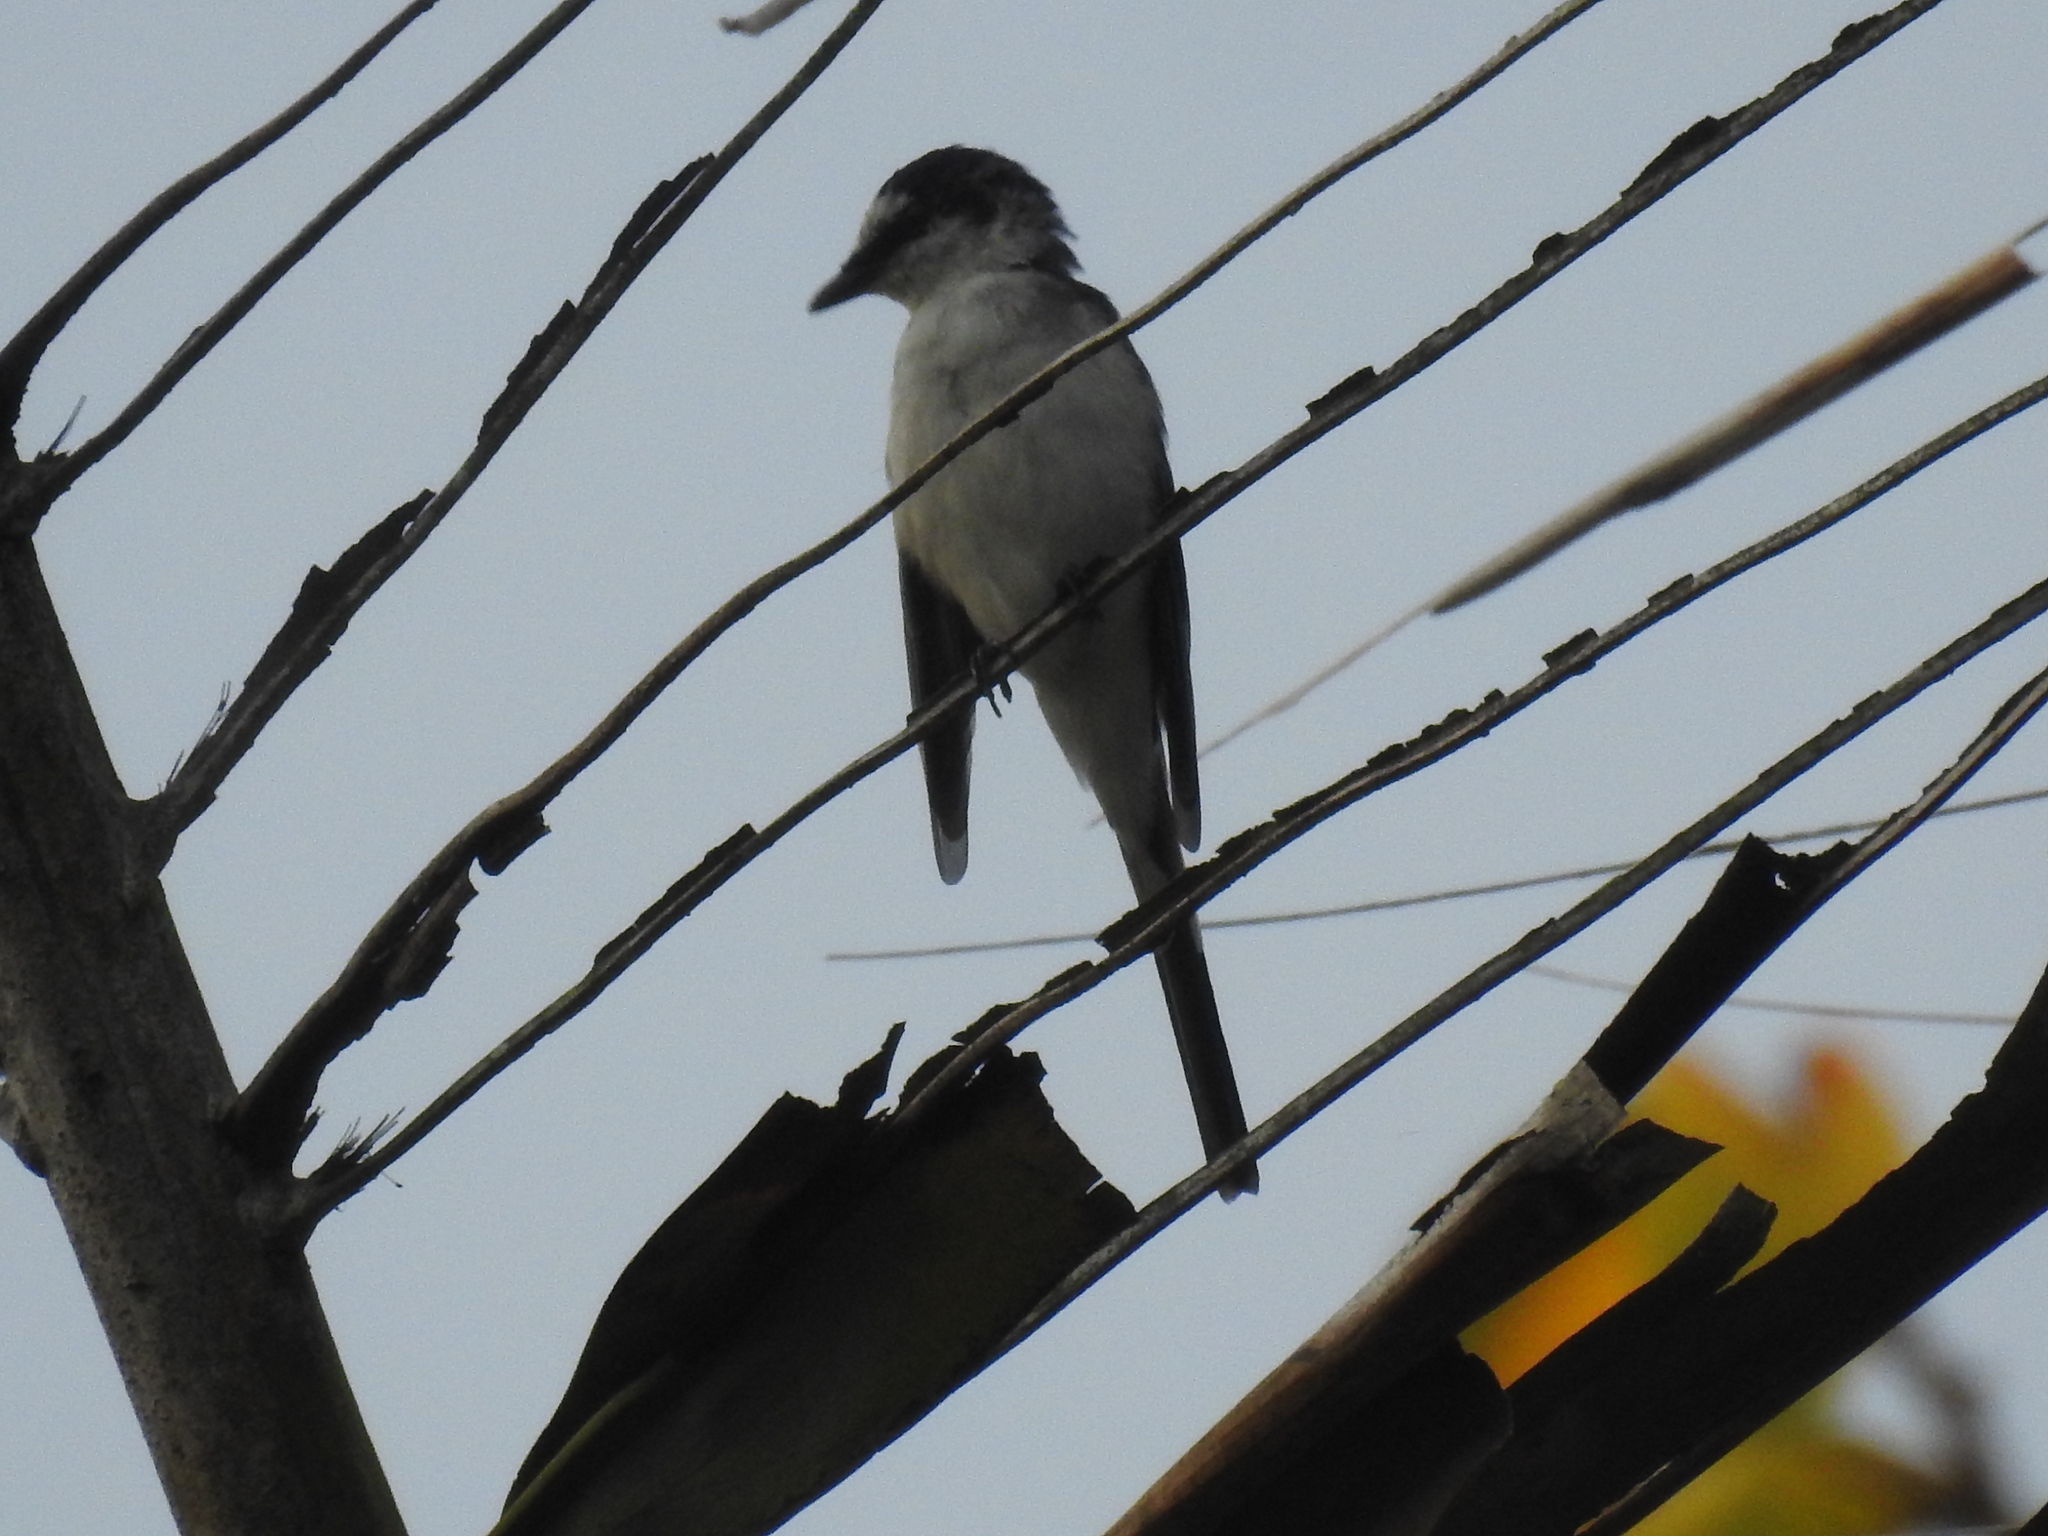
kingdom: Animalia
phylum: Chordata
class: Aves
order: Passeriformes
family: Campephagidae
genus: Pericrocotus
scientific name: Pericrocotus divaricatus
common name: Ashy minivet
